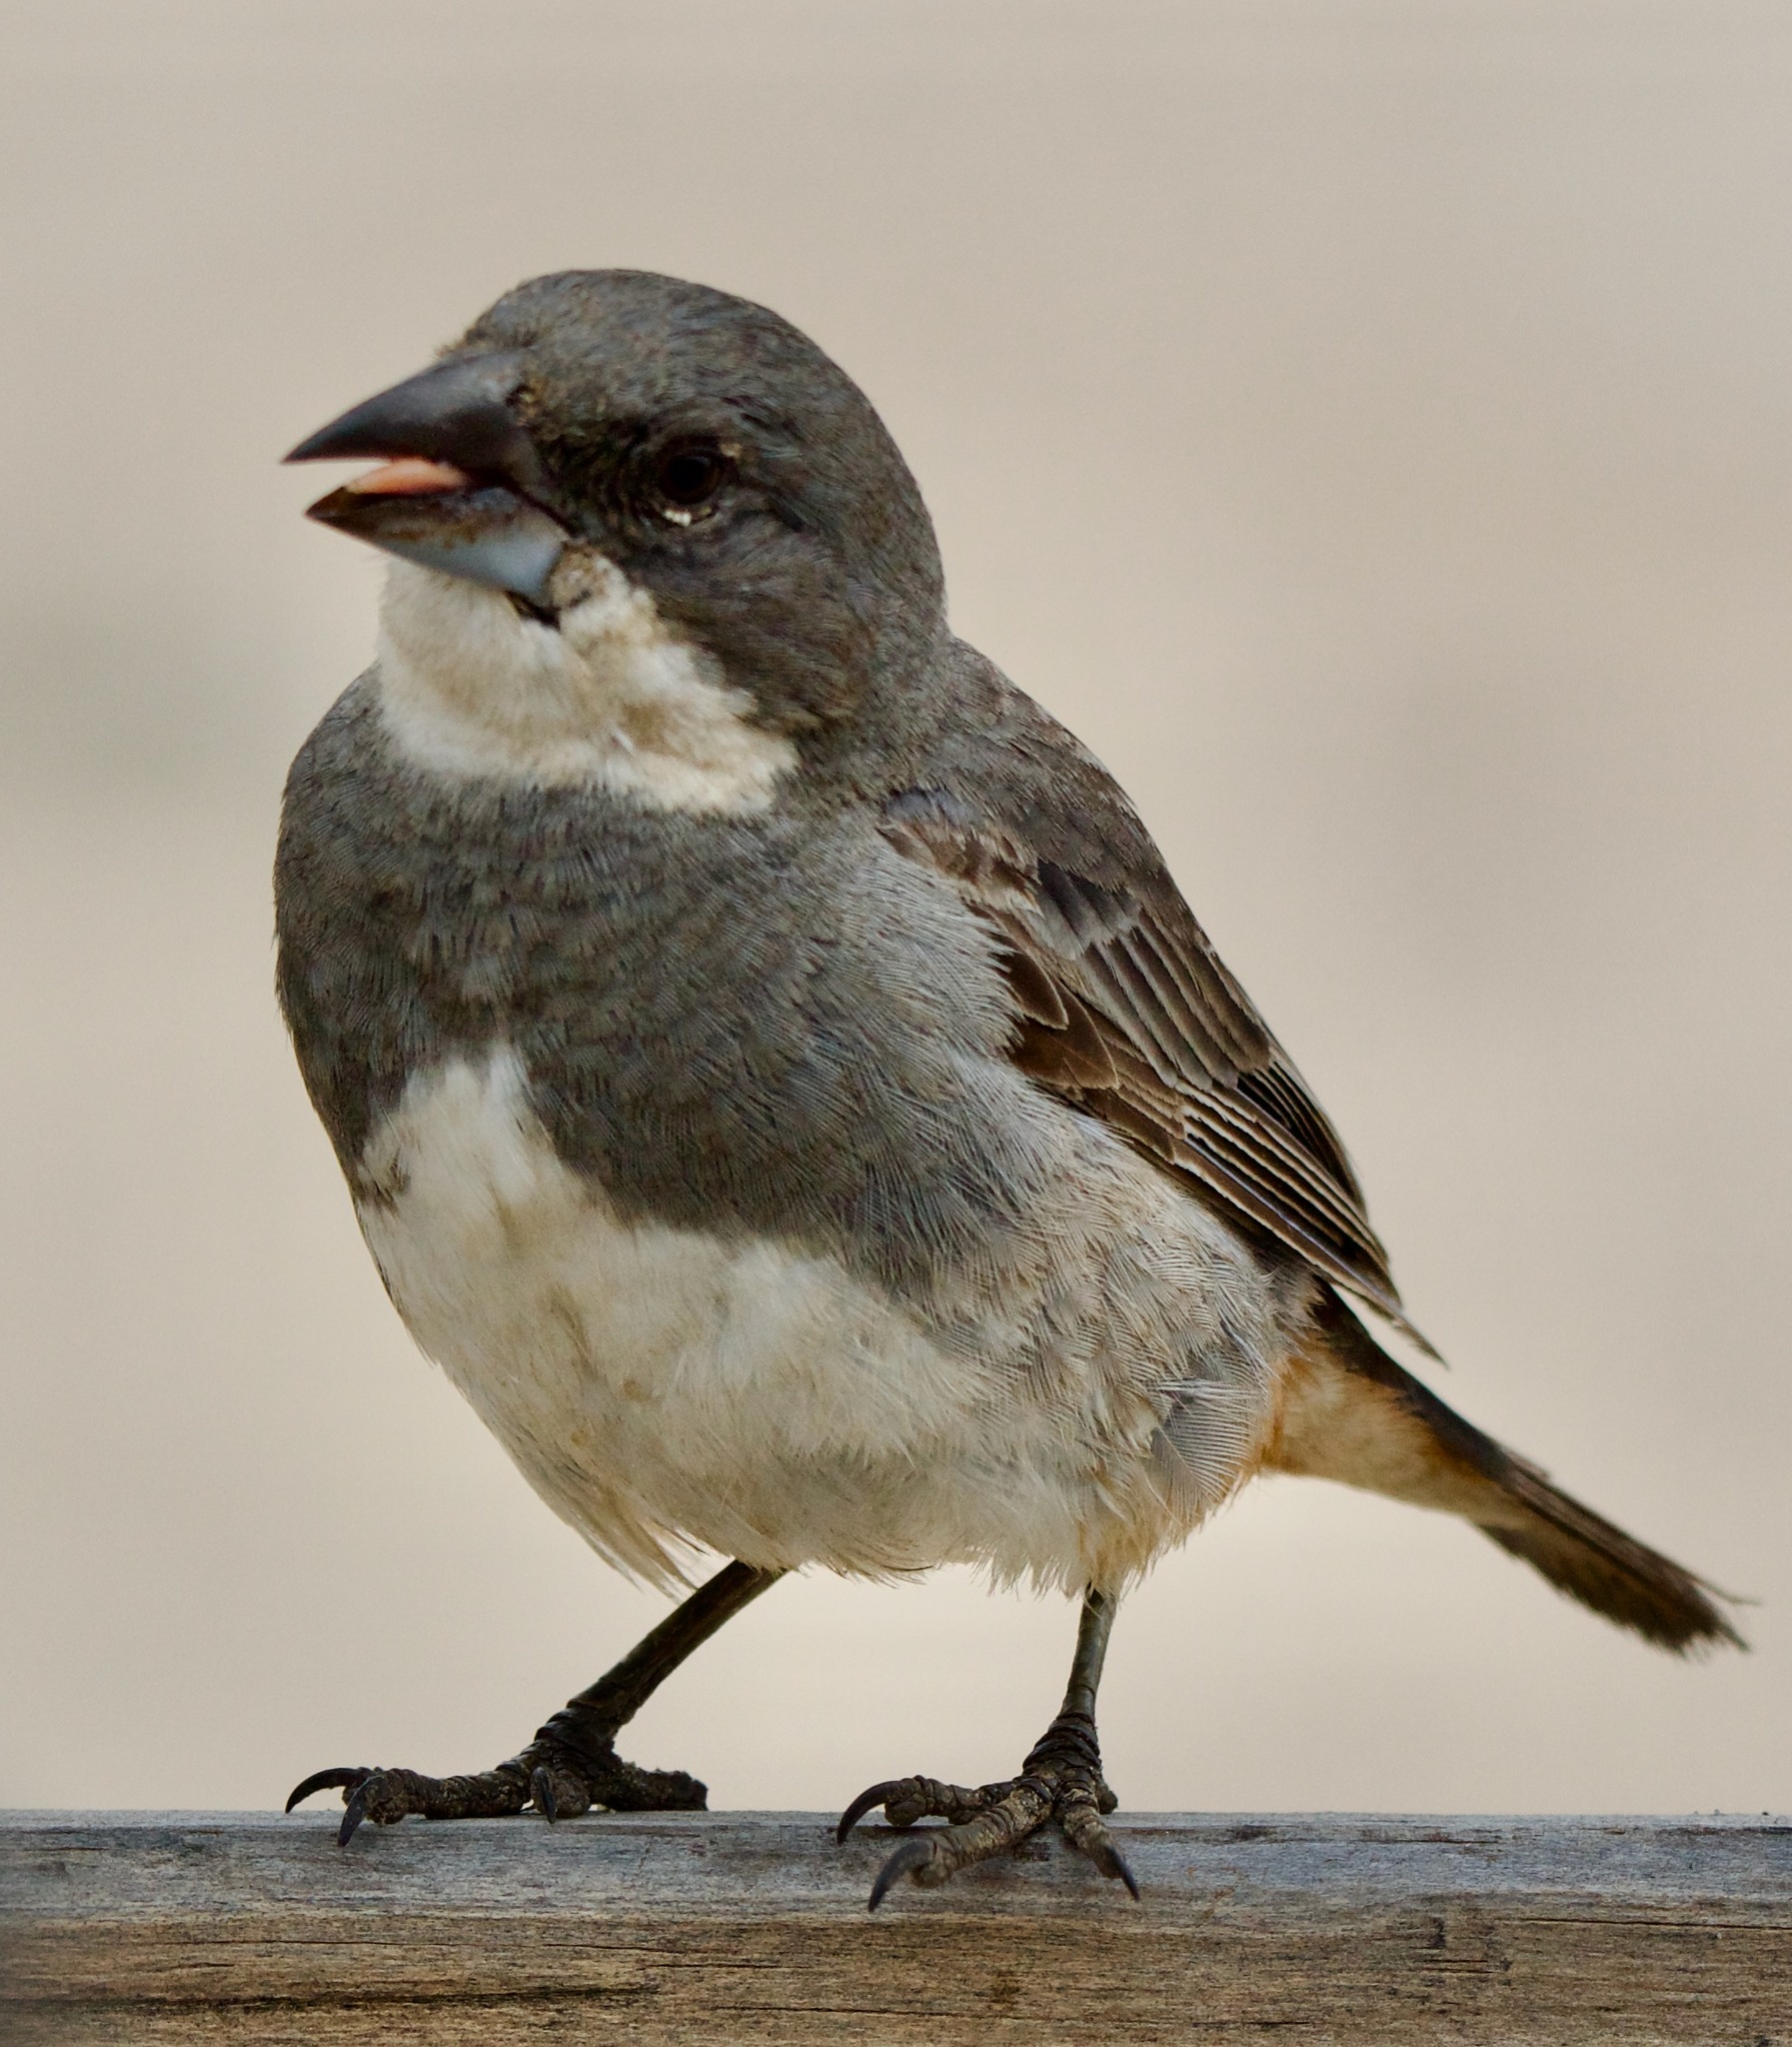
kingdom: Animalia
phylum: Chordata
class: Aves
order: Passeriformes
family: Thraupidae
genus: Diuca
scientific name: Diuca diuca
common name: Common diuca finch
